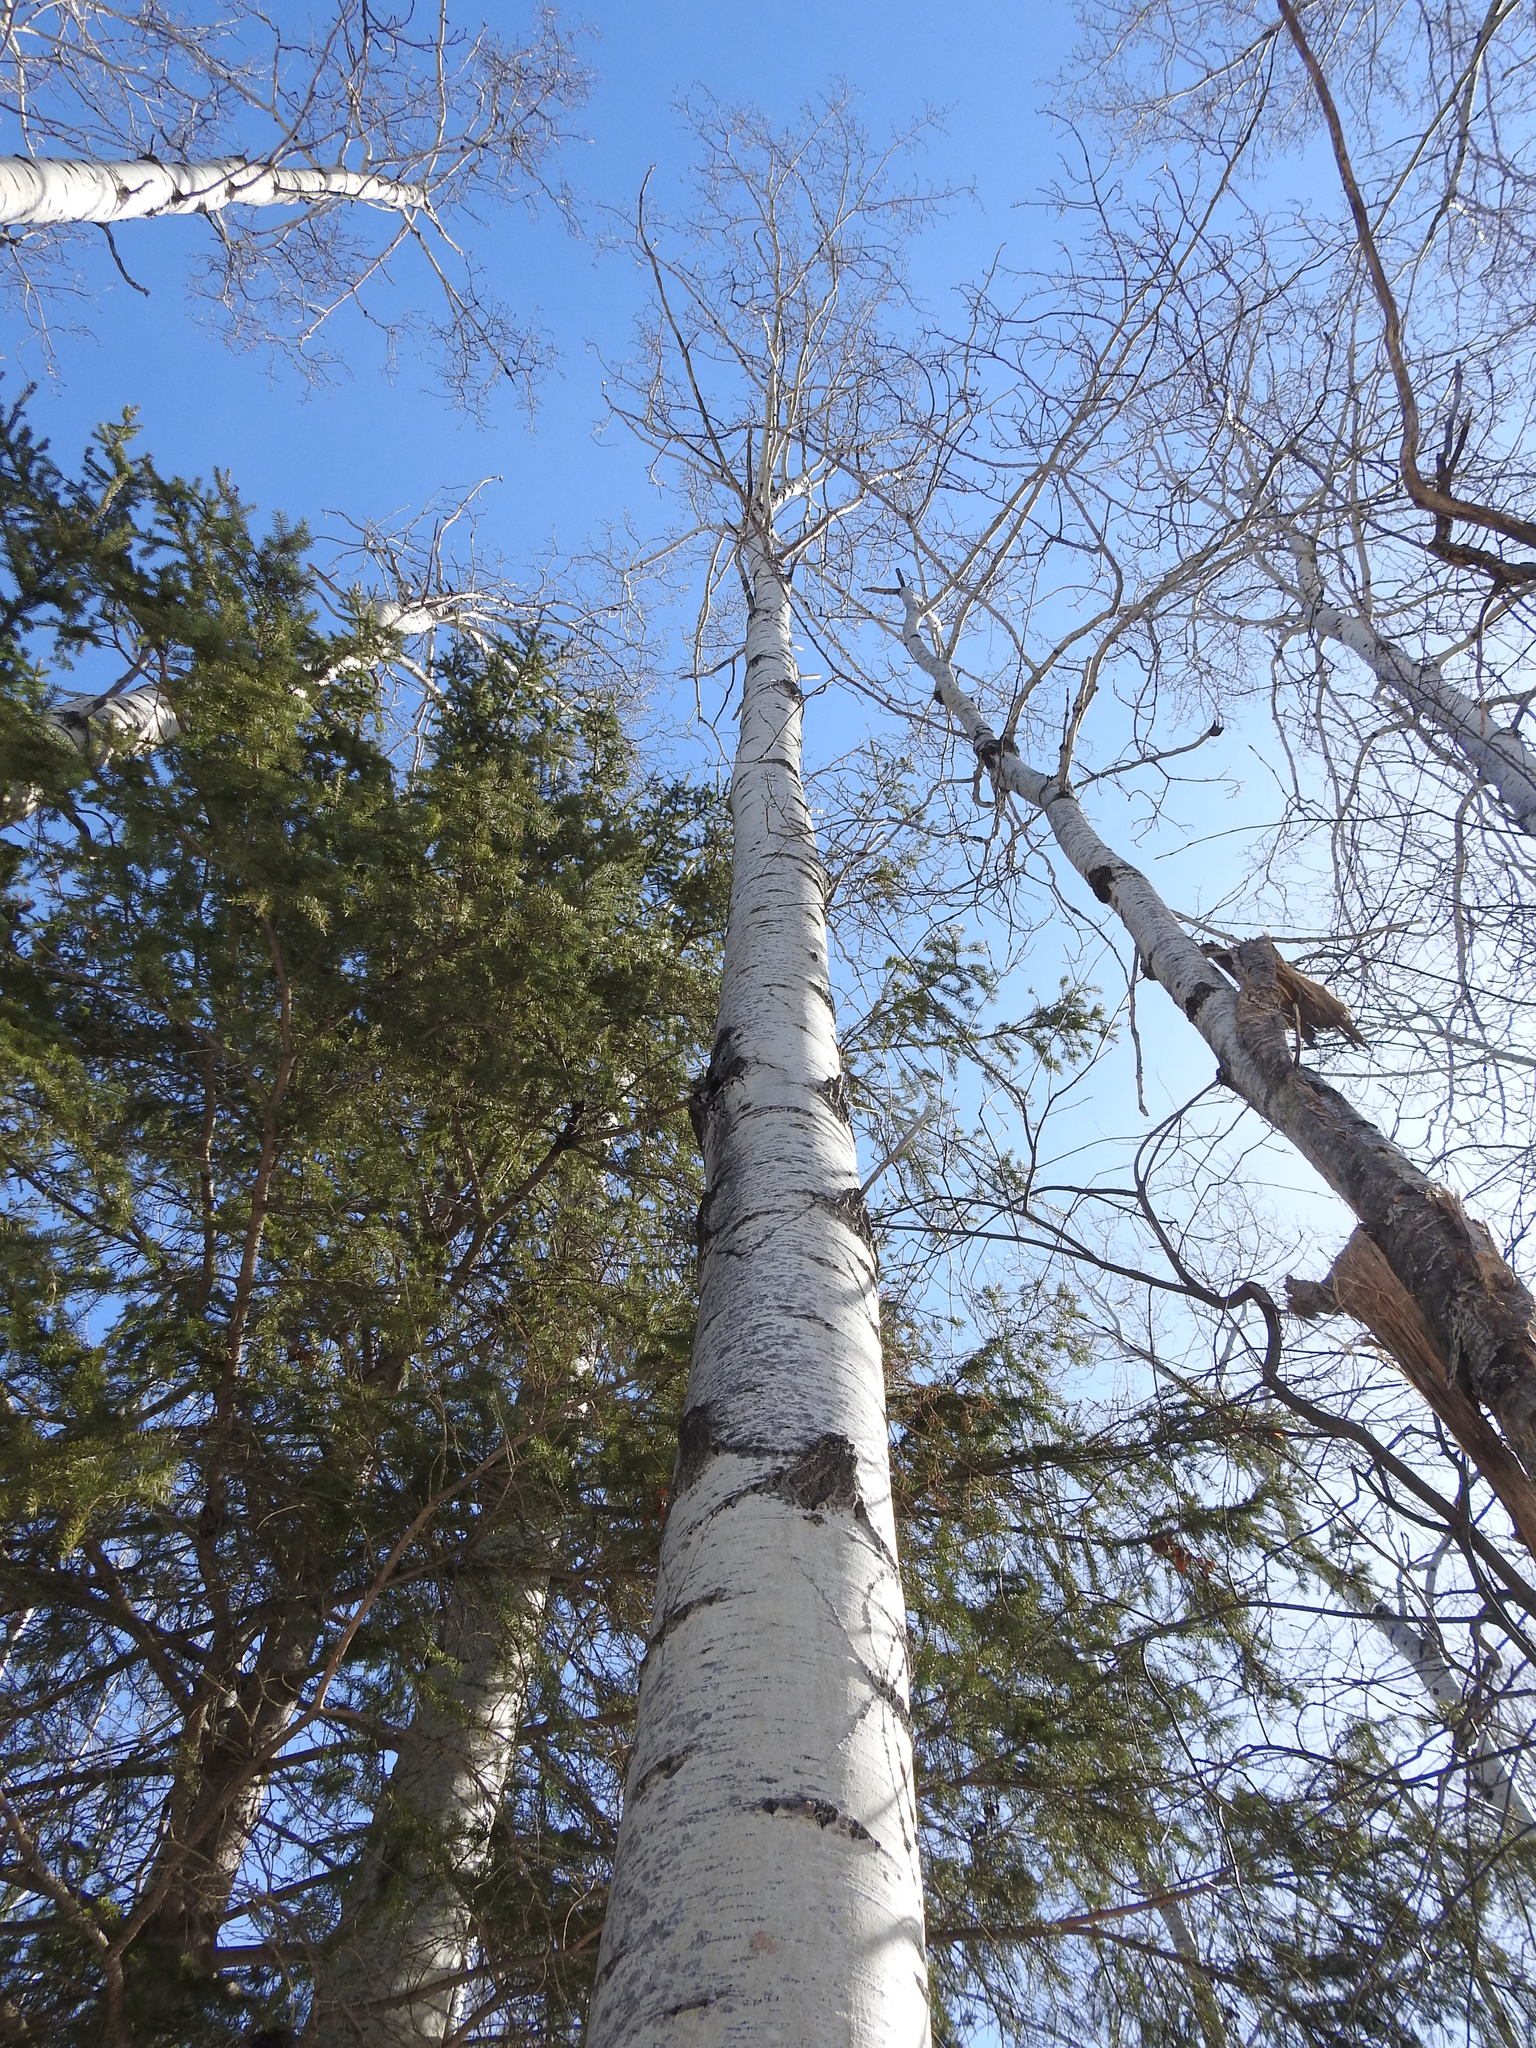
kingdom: Plantae
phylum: Tracheophyta
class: Magnoliopsida
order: Malpighiales
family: Salicaceae
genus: Populus
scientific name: Populus tremuloides
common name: Quaking aspen
